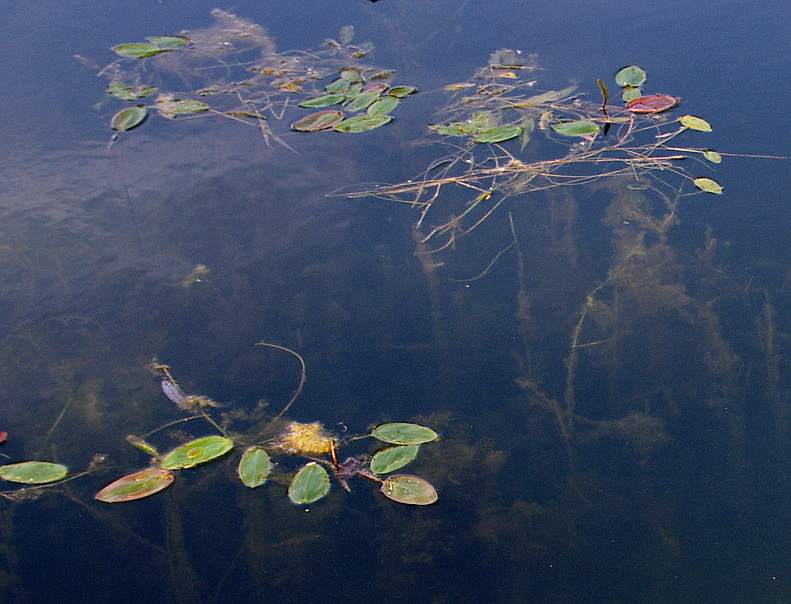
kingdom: Plantae
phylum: Tracheophyta
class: Liliopsida
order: Alismatales
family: Potamogetonaceae
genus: Potamogeton
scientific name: Potamogeton natans
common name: Broad-leaved pondweed
